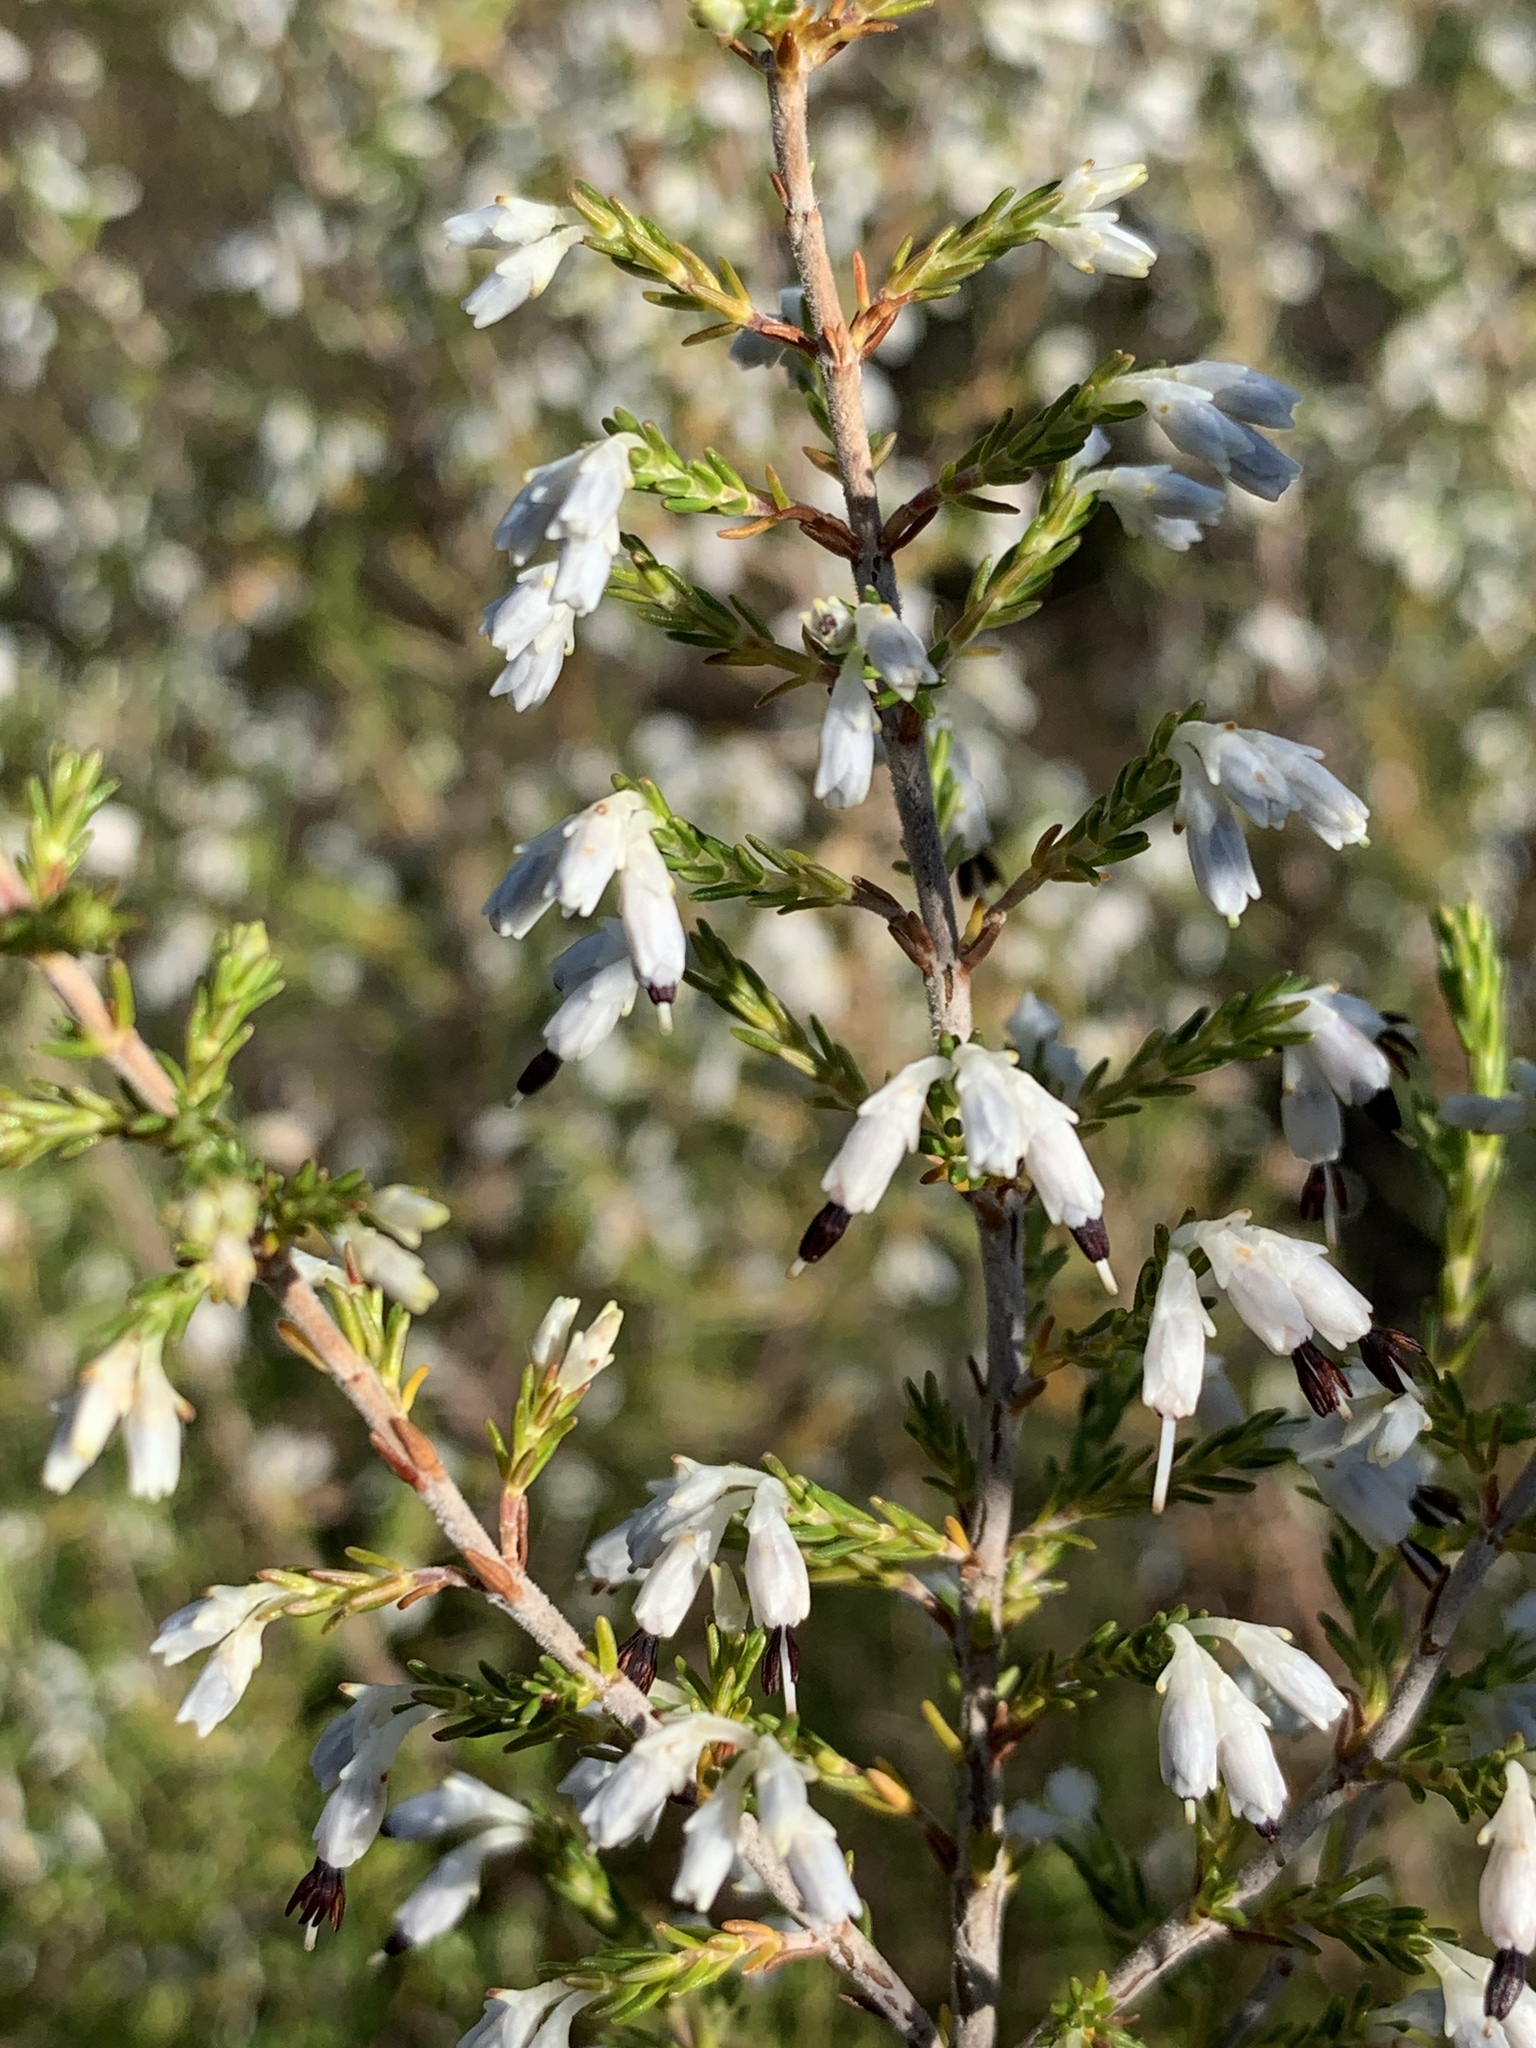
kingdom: Plantae
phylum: Tracheophyta
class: Magnoliopsida
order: Ericales
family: Ericaceae
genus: Erica
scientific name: Erica imbricata
